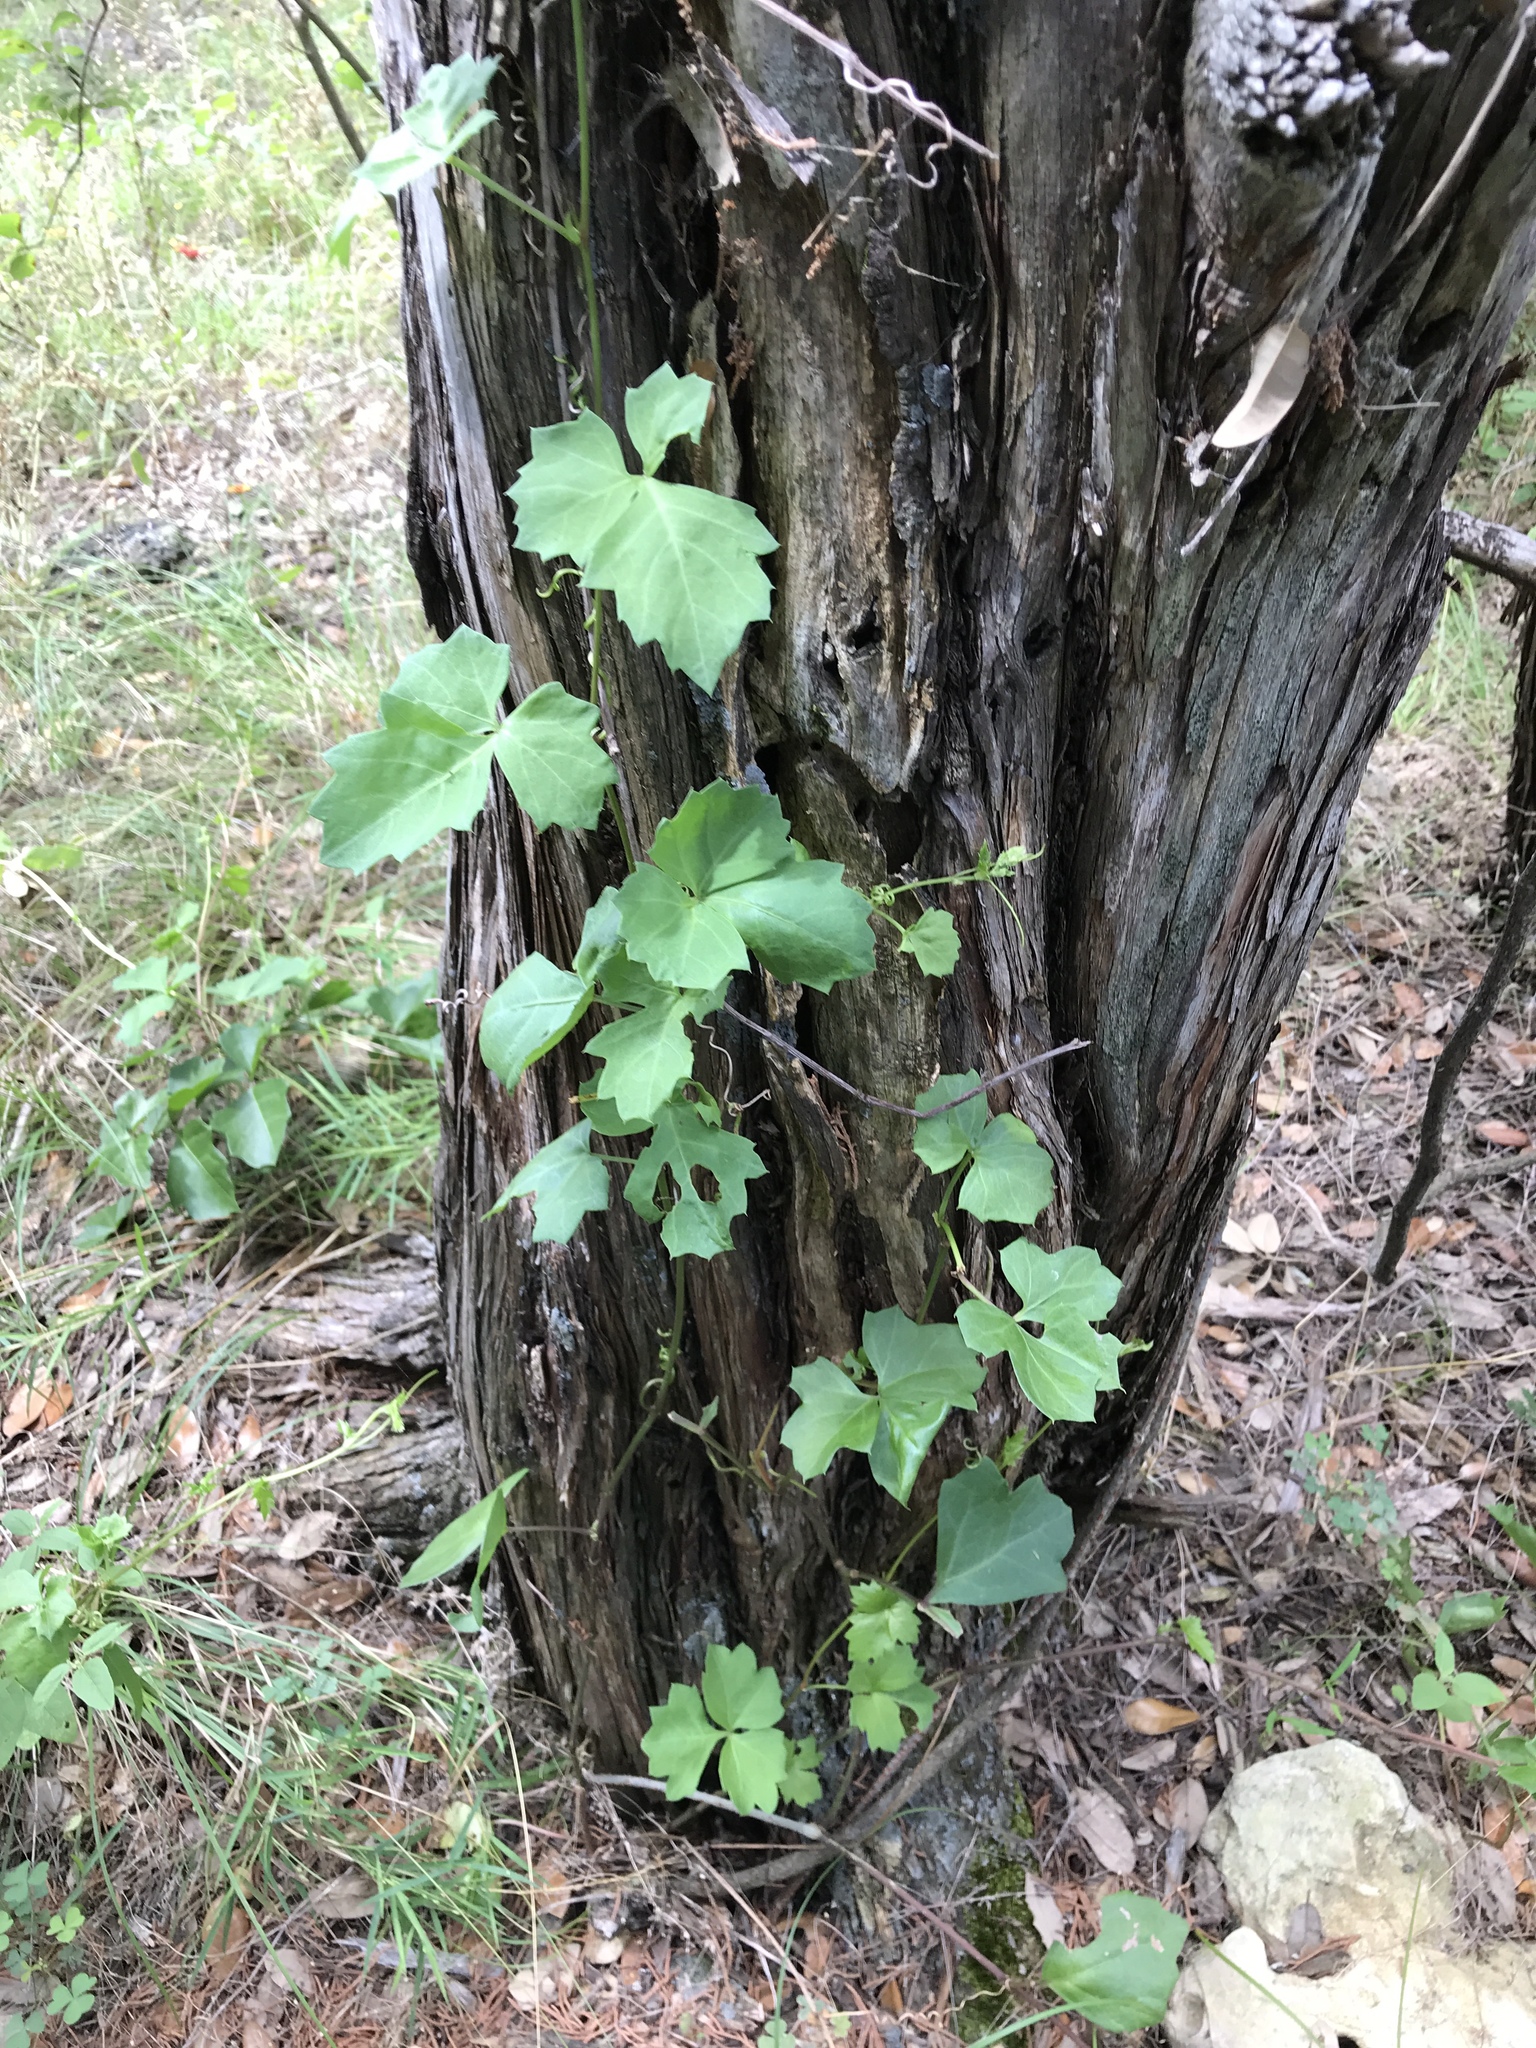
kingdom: Plantae
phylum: Tracheophyta
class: Magnoliopsida
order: Vitales
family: Vitaceae
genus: Cissus
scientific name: Cissus trifoliata
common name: Vine-sorrel
